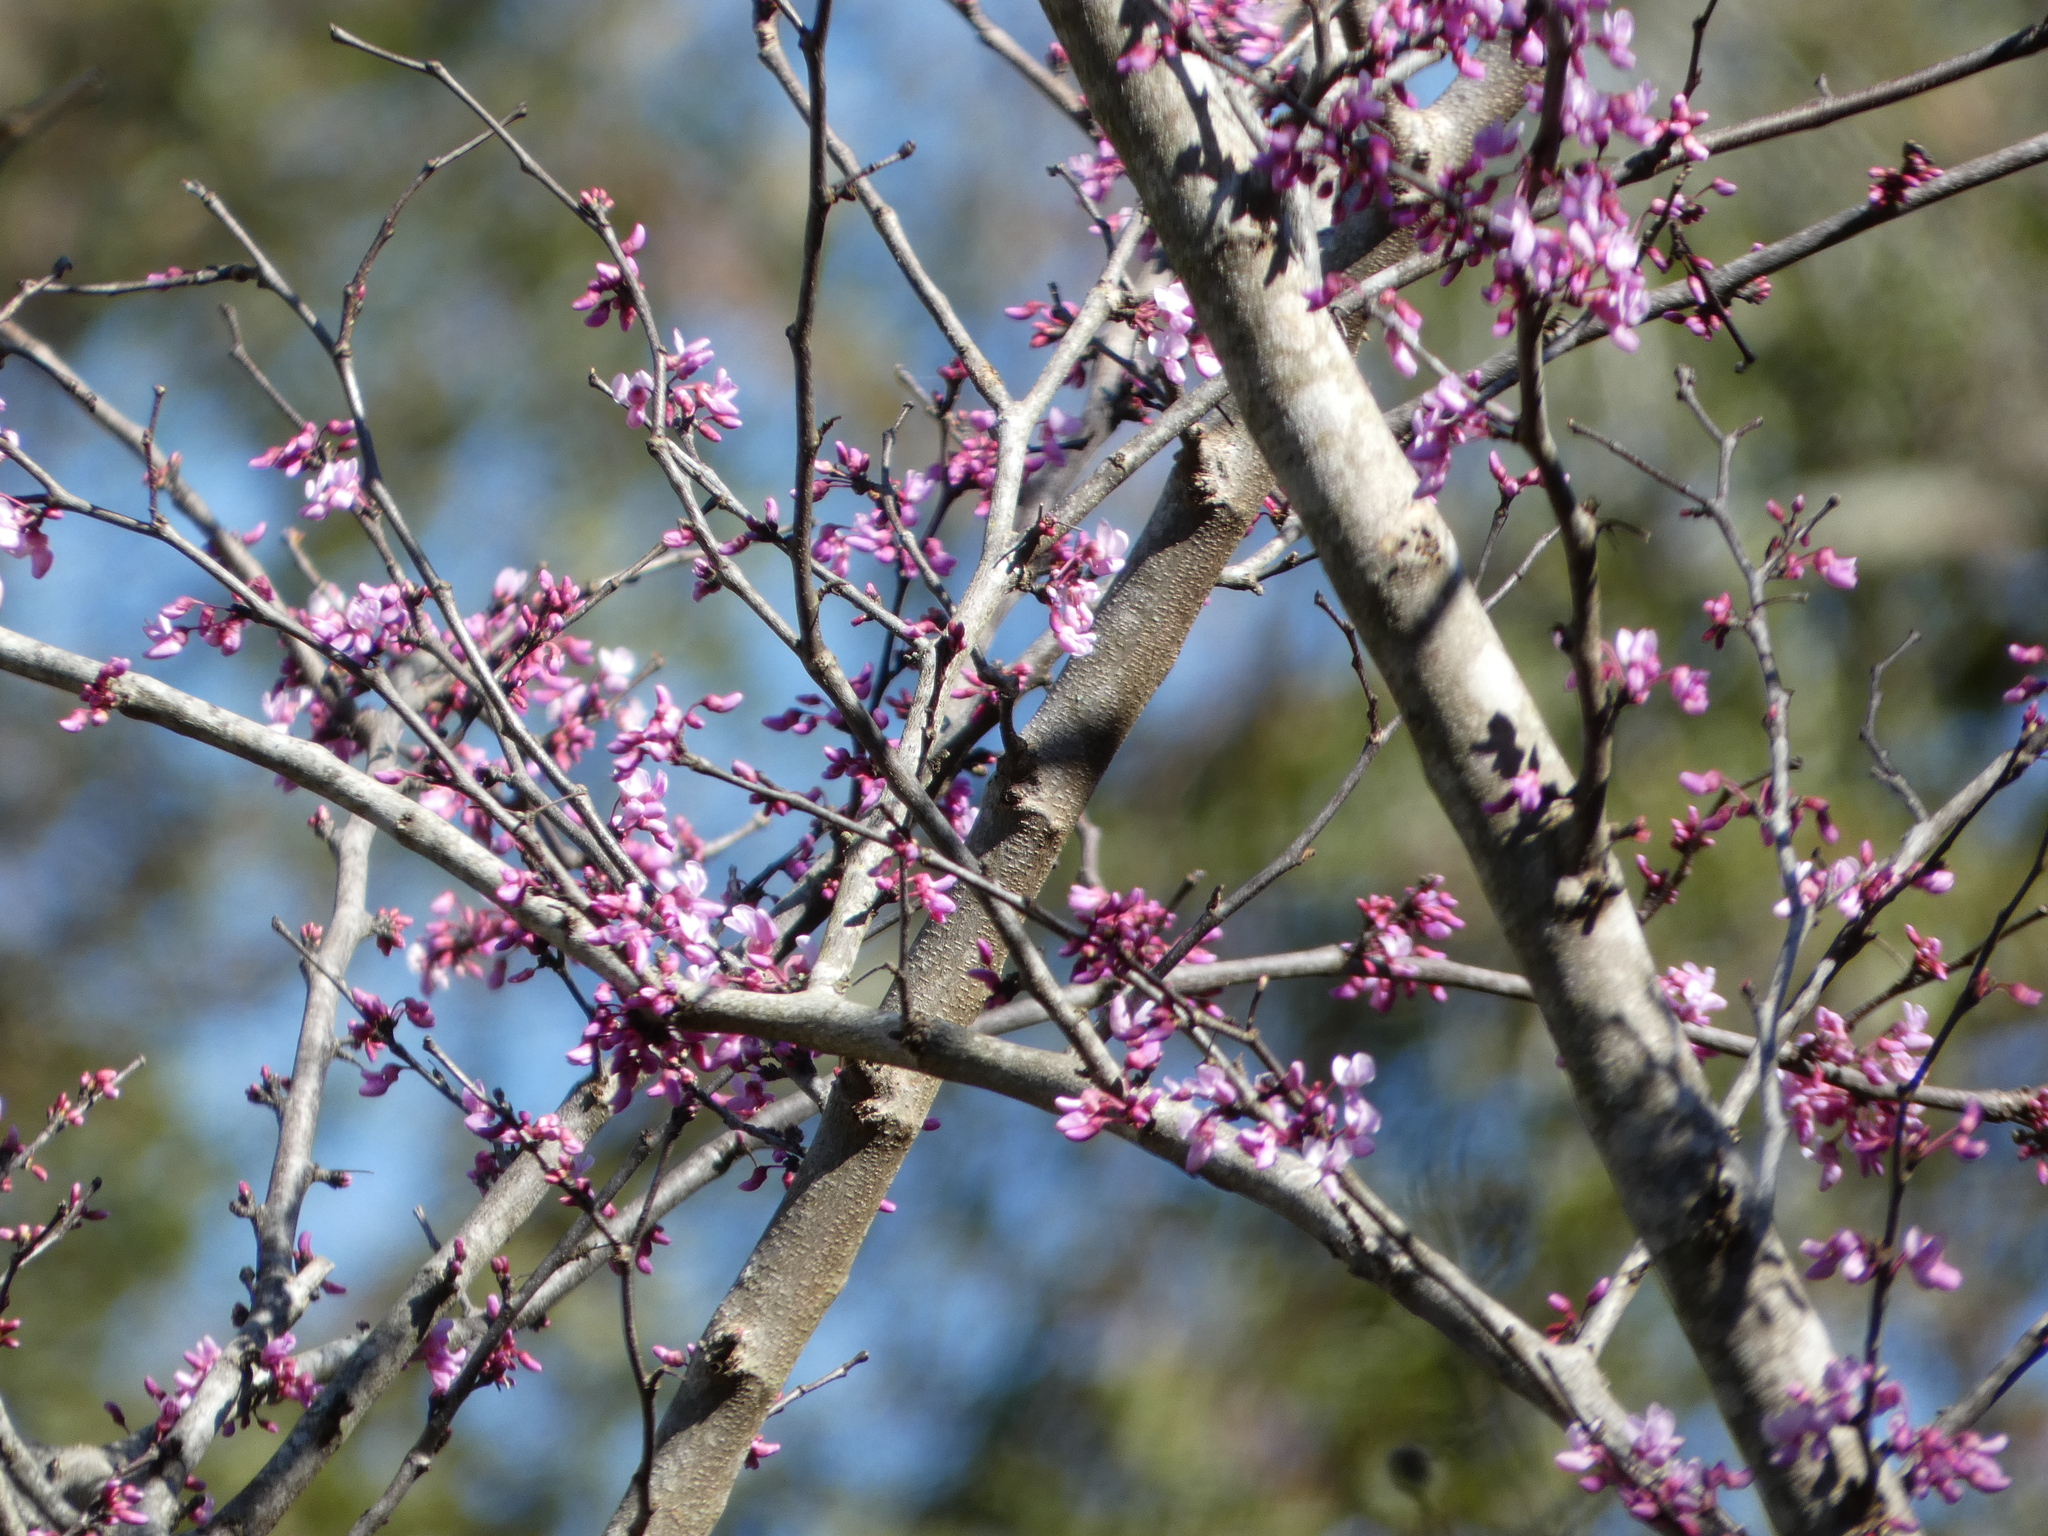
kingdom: Plantae
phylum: Tracheophyta
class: Magnoliopsida
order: Fabales
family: Fabaceae
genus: Cercis
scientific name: Cercis canadensis
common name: Eastern redbud
